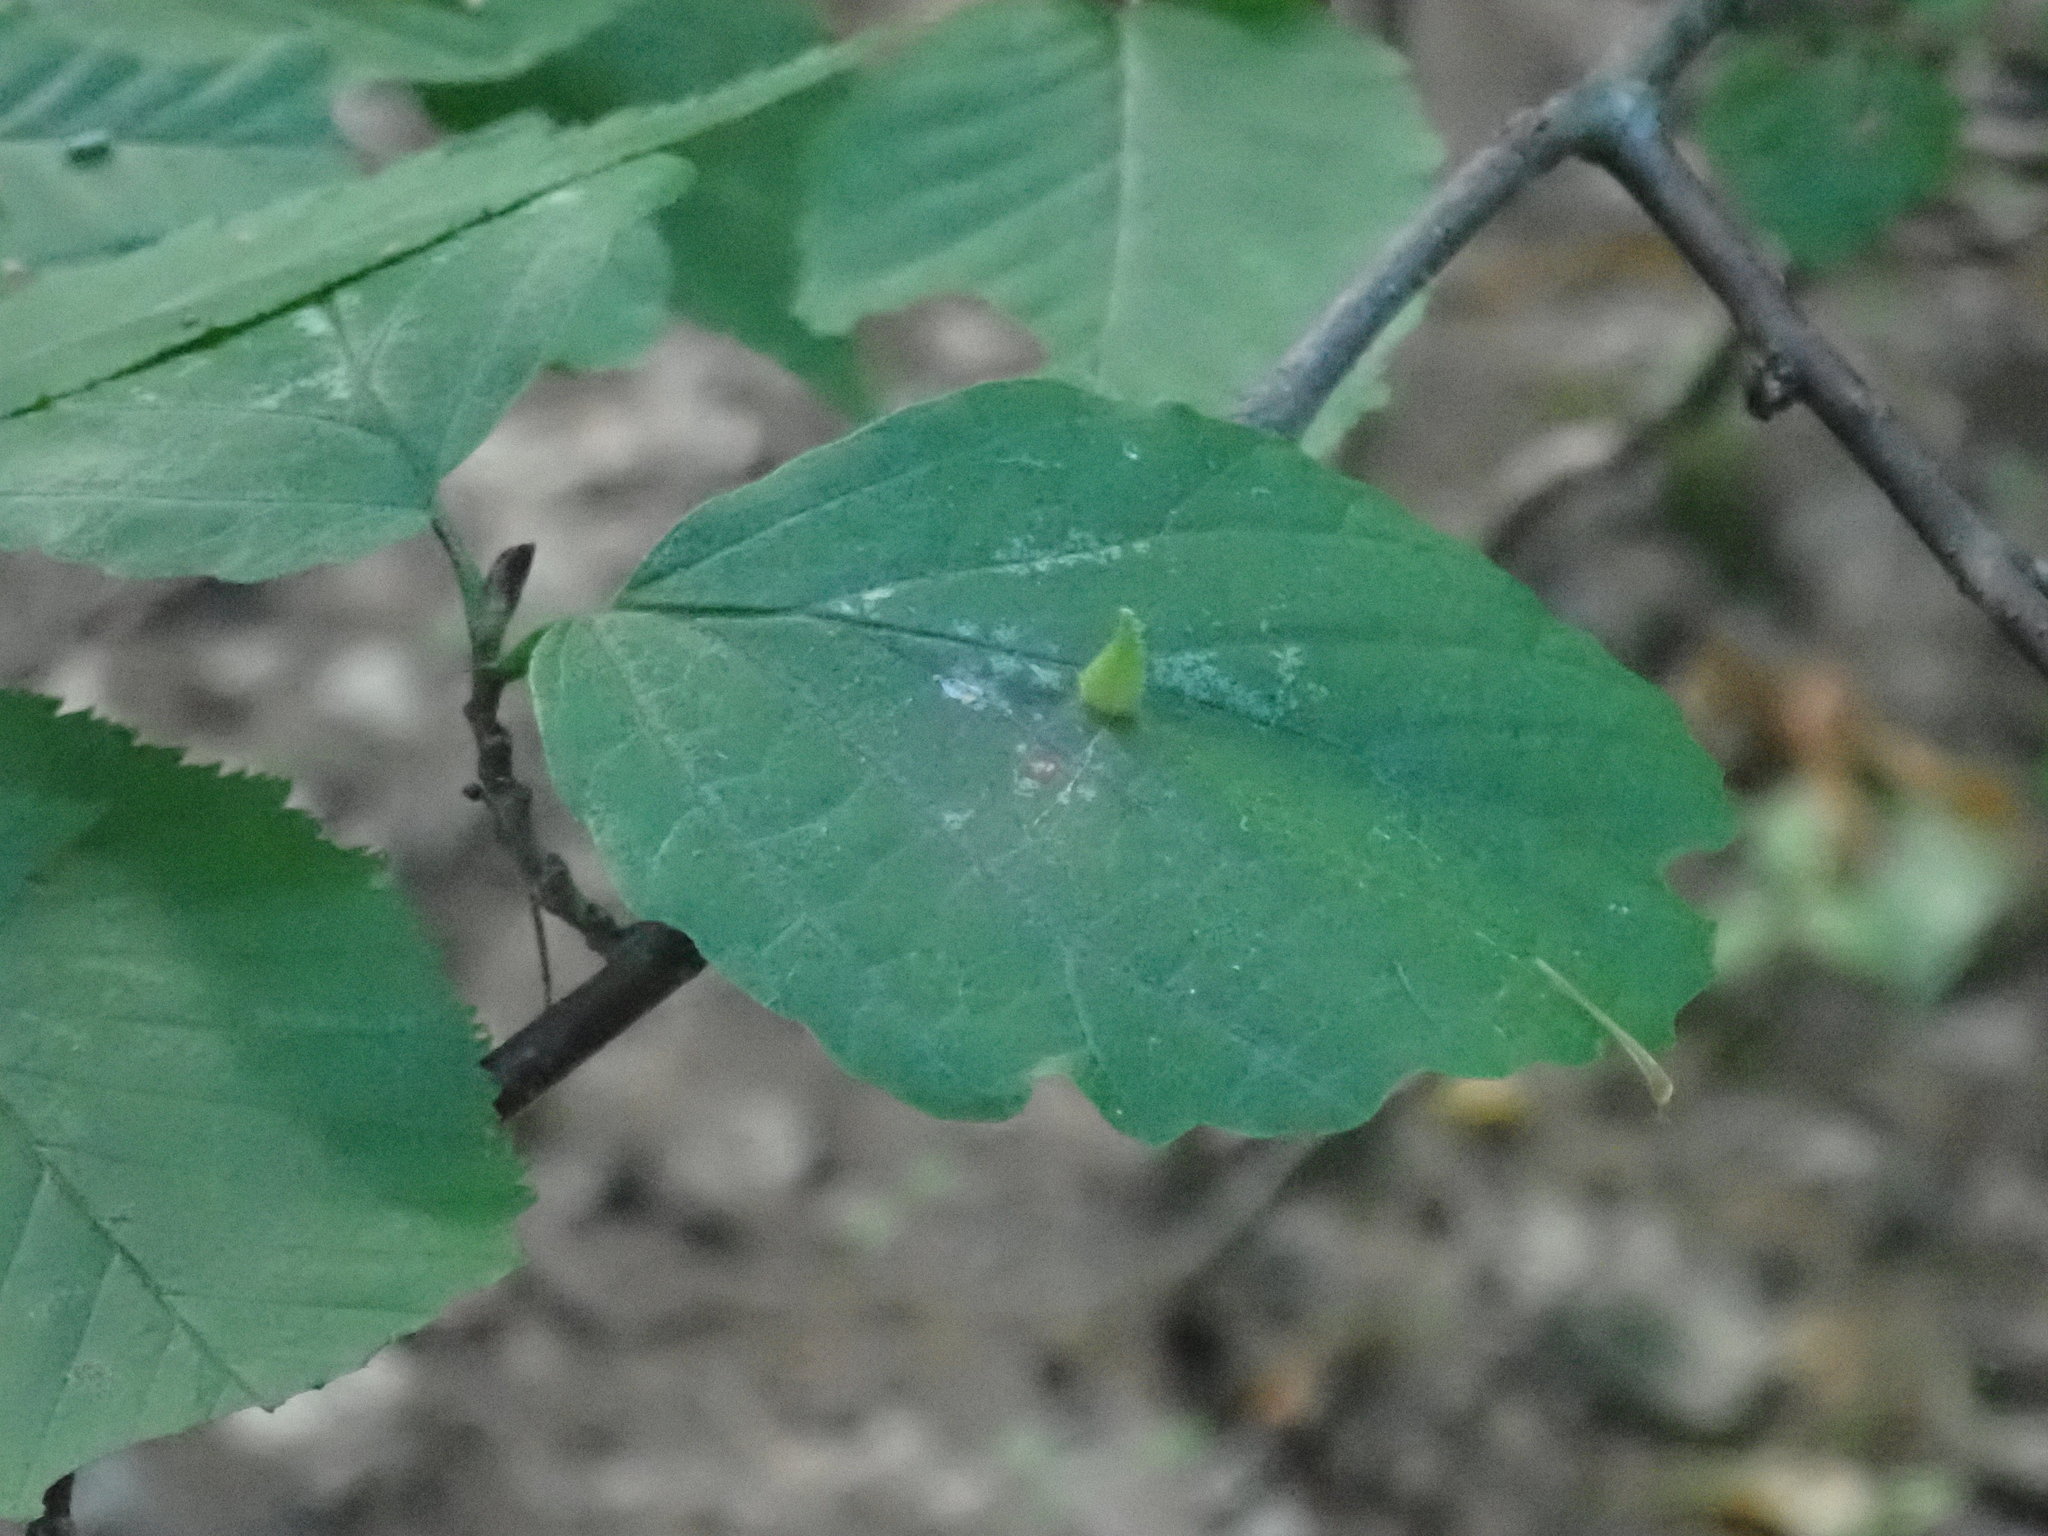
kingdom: Animalia
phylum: Arthropoda
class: Insecta
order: Hemiptera
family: Aphididae
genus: Hormaphis
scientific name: Hormaphis hamamelidis
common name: Witch-hazel cone gall aphid
